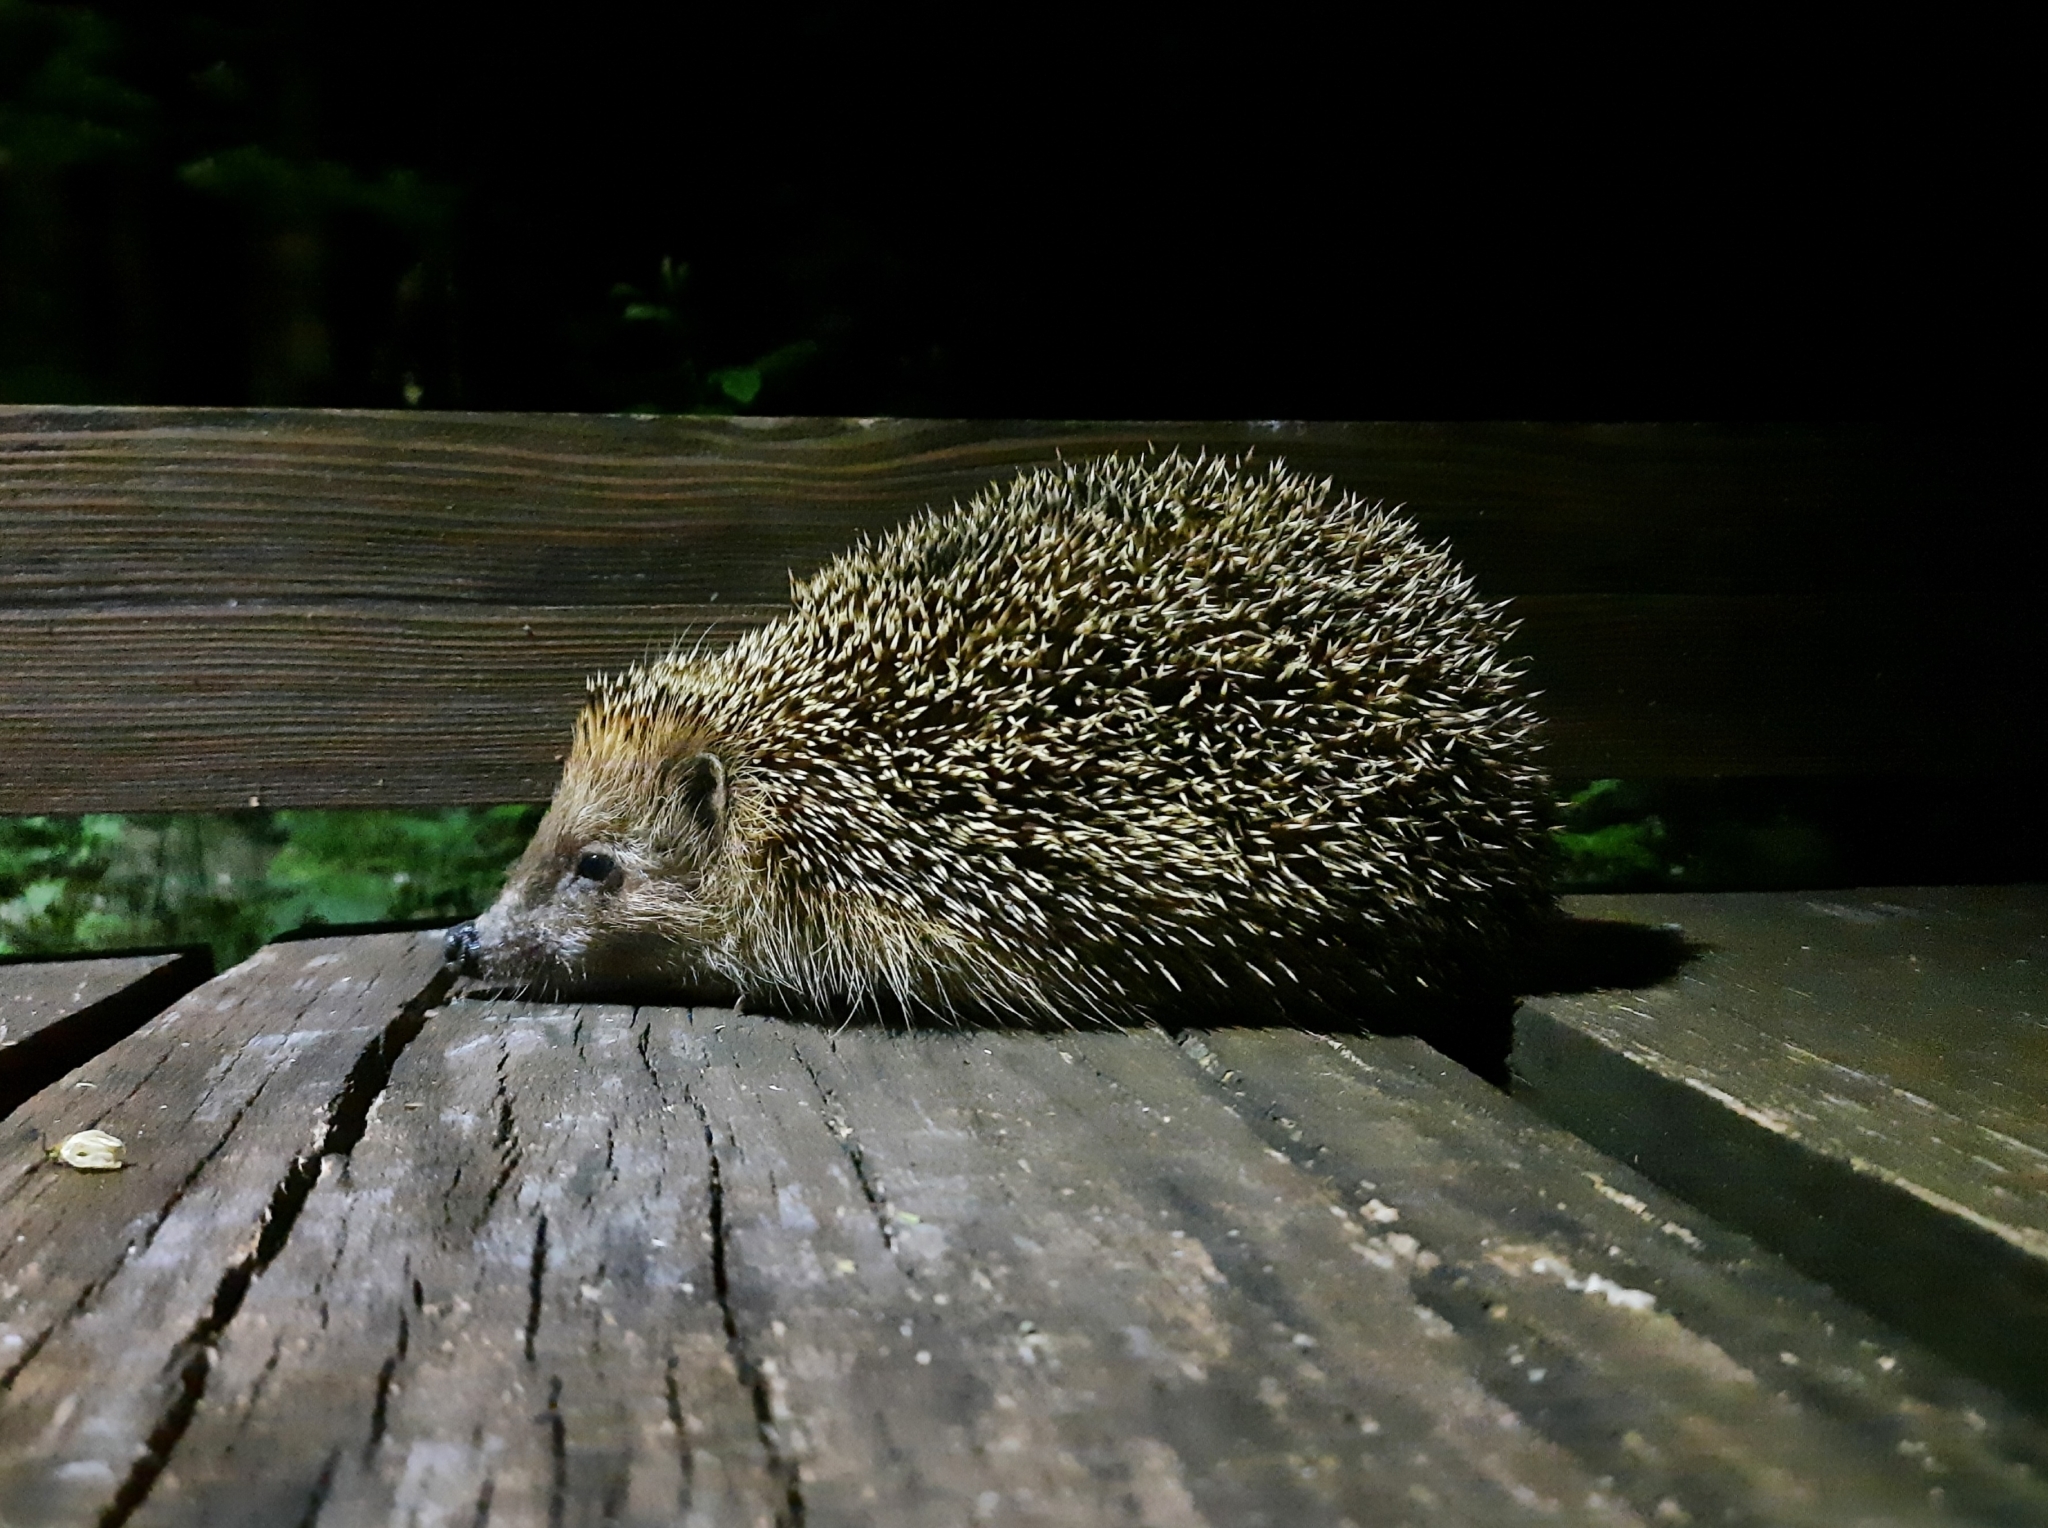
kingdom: Animalia
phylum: Chordata
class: Mammalia
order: Erinaceomorpha
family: Erinaceidae
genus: Erinaceus
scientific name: Erinaceus europaeus
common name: West european hedgehog
